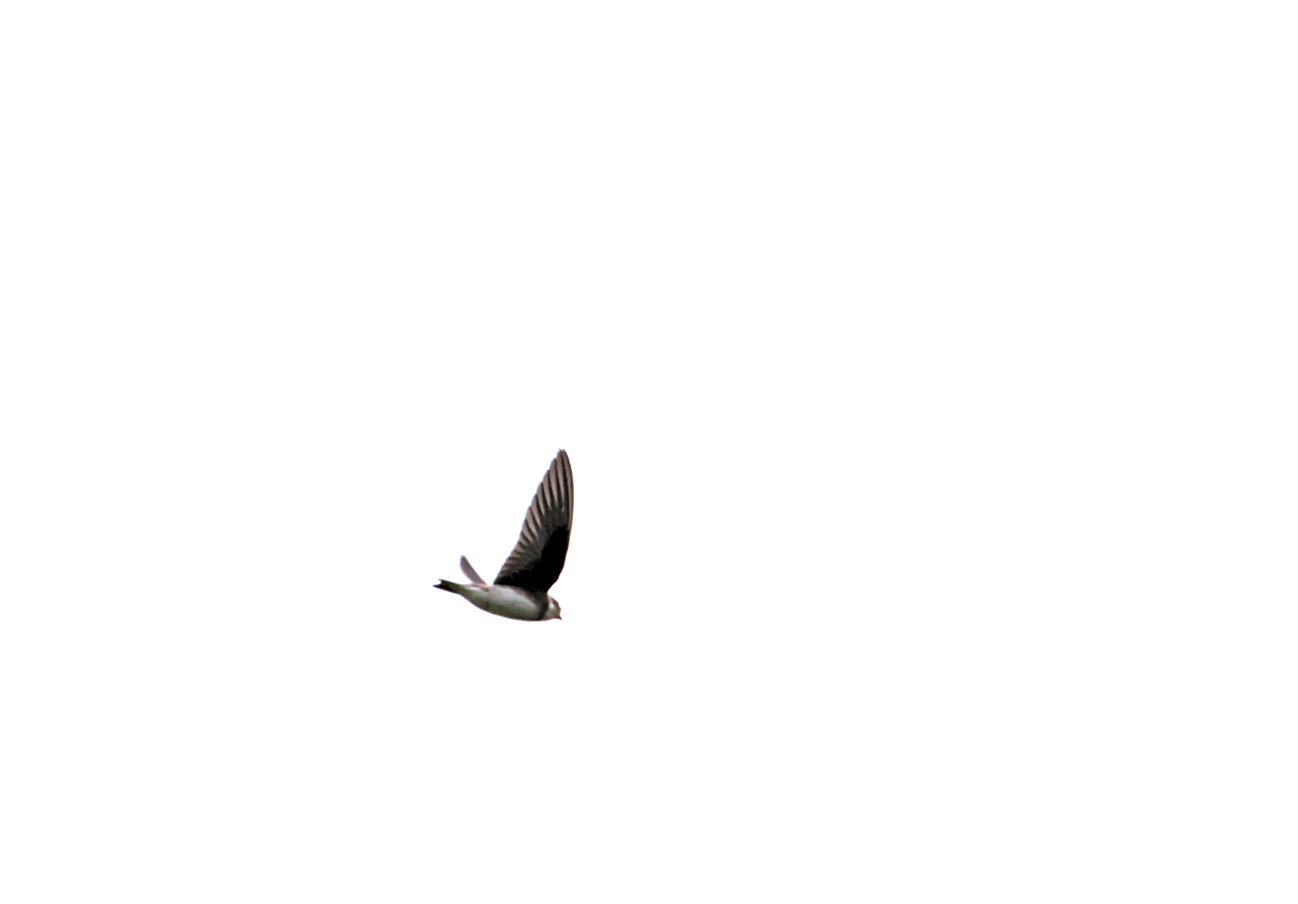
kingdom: Animalia
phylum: Chordata
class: Aves
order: Passeriformes
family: Hirundinidae
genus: Riparia
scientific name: Riparia riparia
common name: Sand martin
